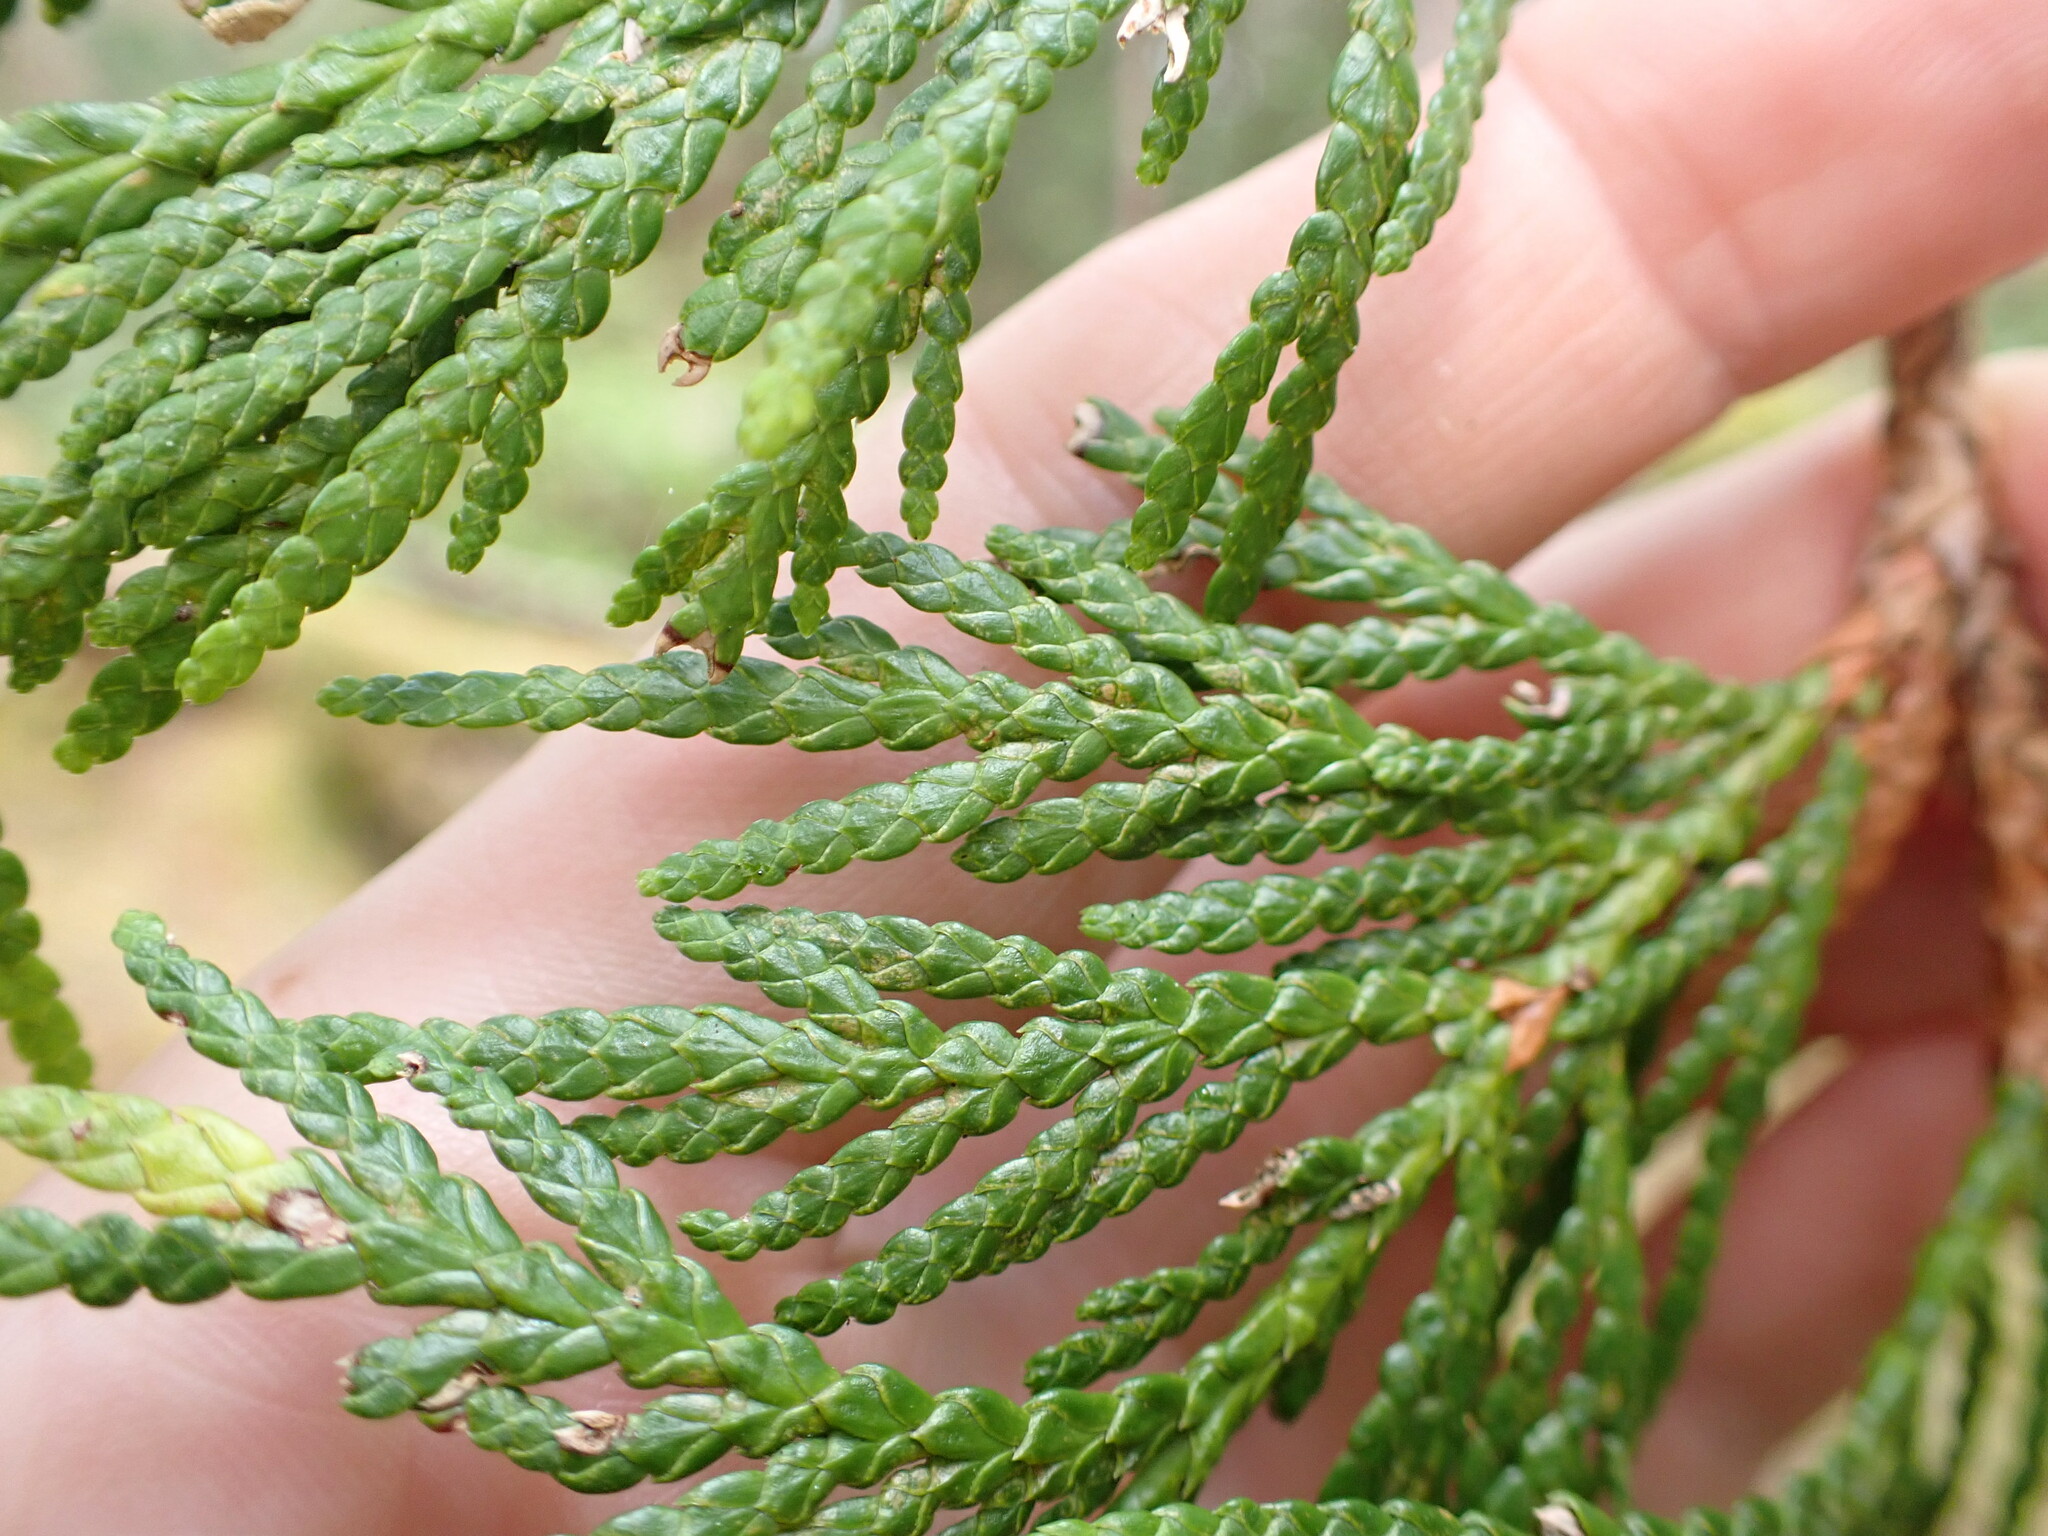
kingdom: Plantae
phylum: Tracheophyta
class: Pinopsida
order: Pinales
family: Cupressaceae
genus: Thuja
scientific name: Thuja plicata
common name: Western red-cedar
